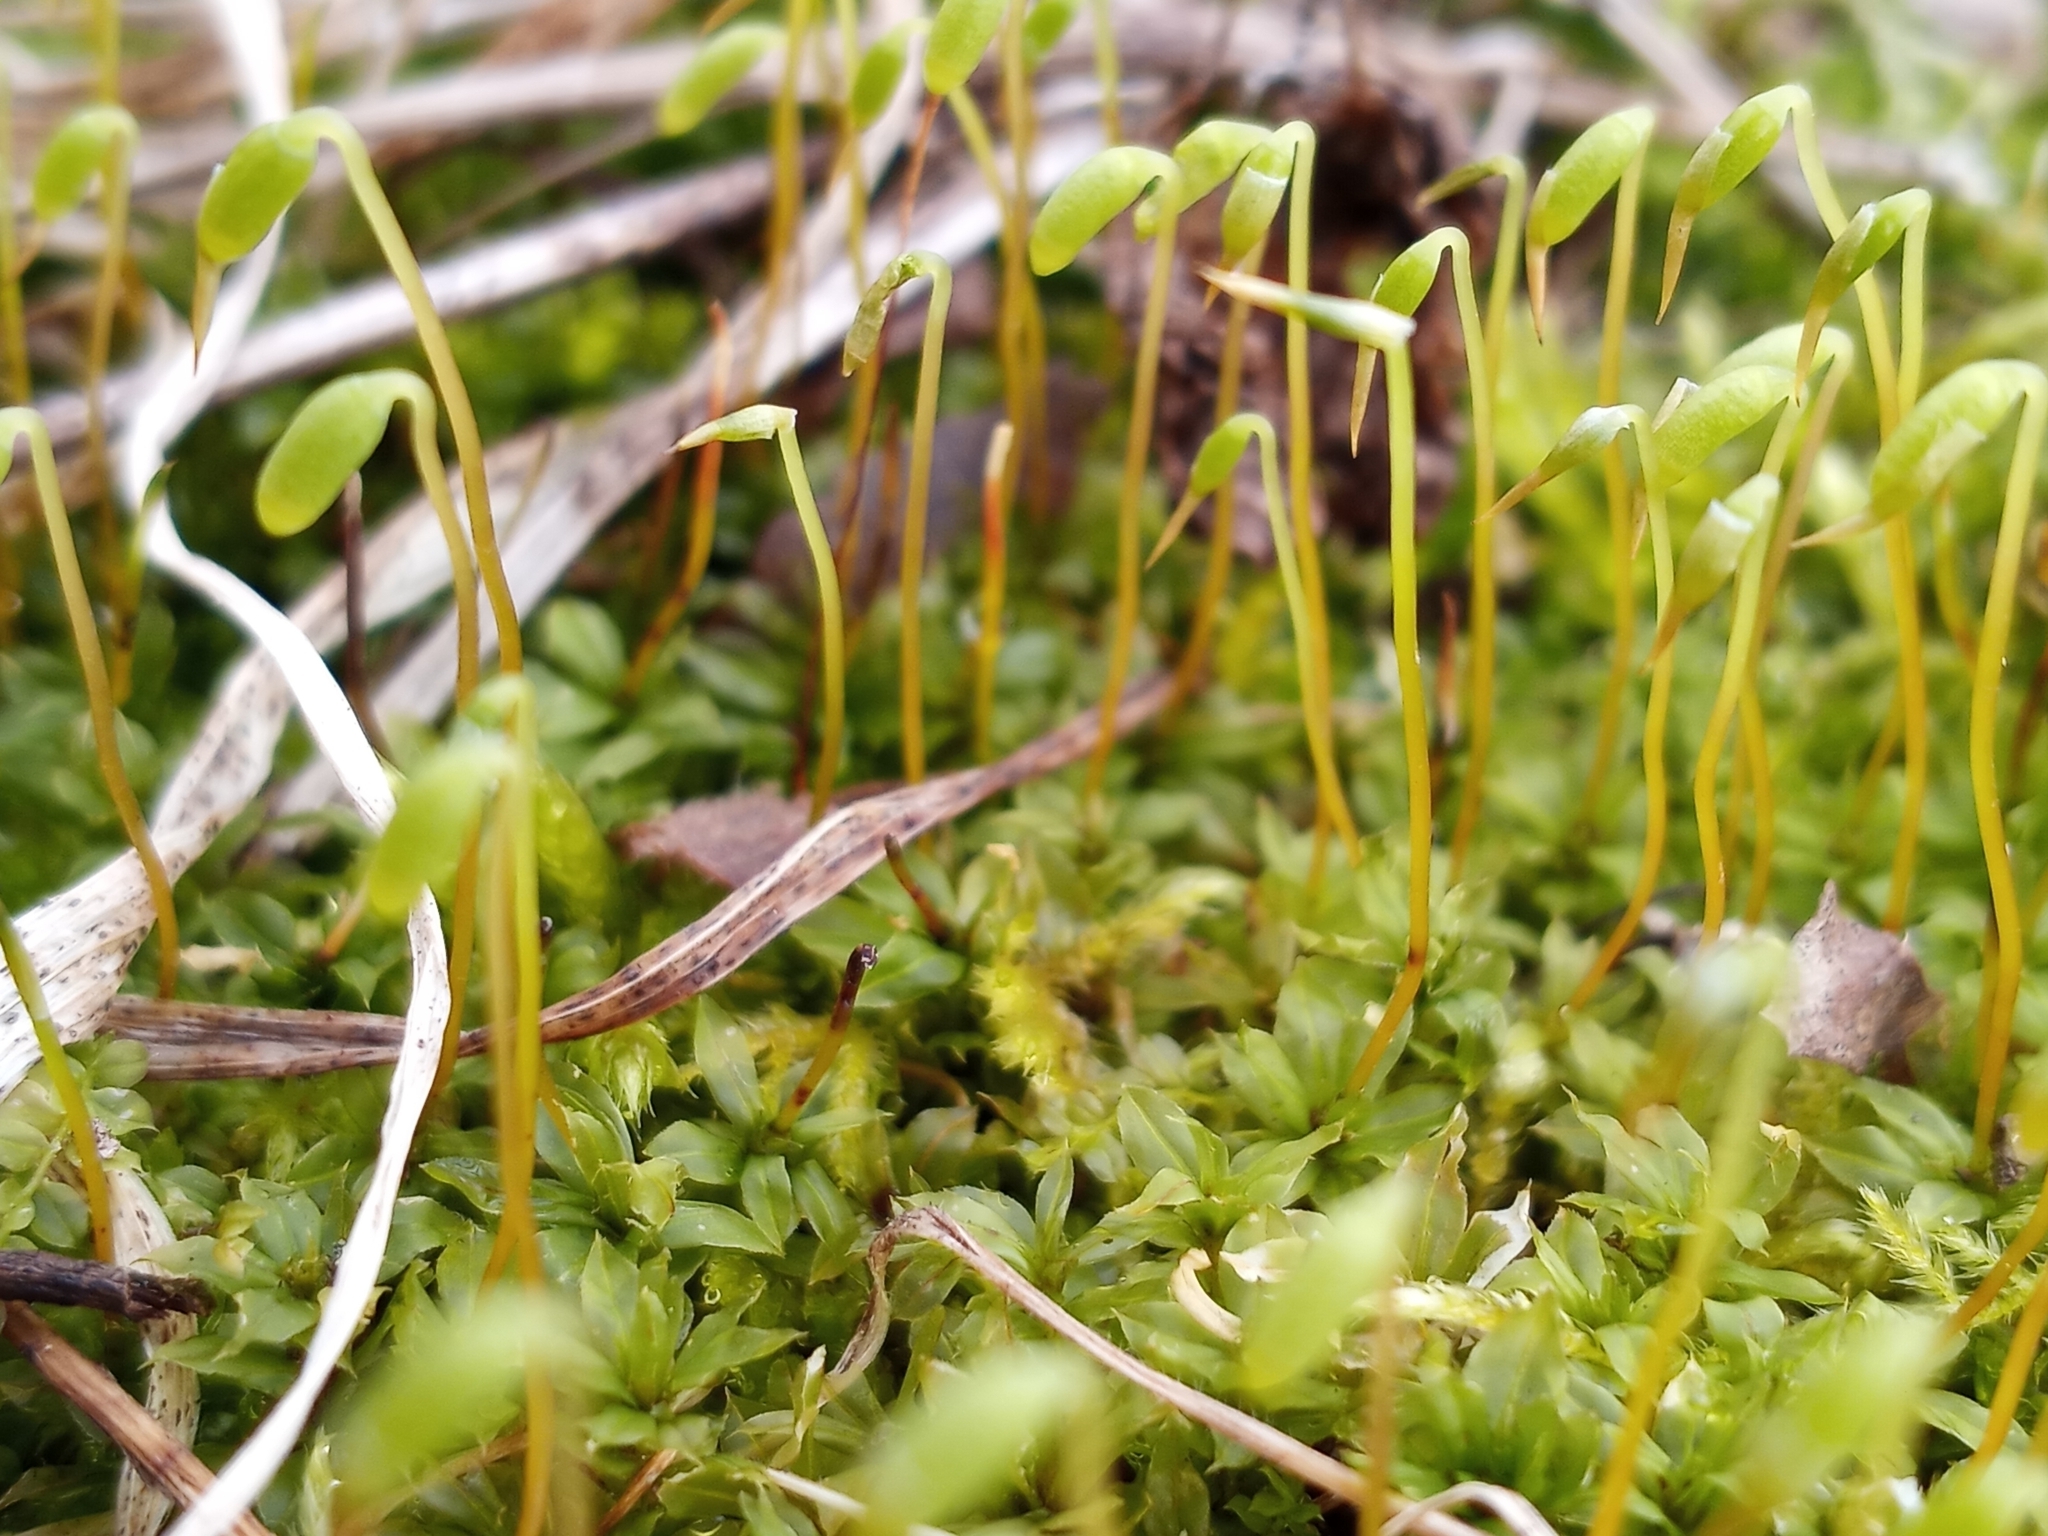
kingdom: Plantae
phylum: Bryophyta
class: Bryopsida
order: Bryales
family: Mniaceae
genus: Plagiomnium
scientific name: Plagiomnium cuspidatum
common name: Woodsy leafy moss
